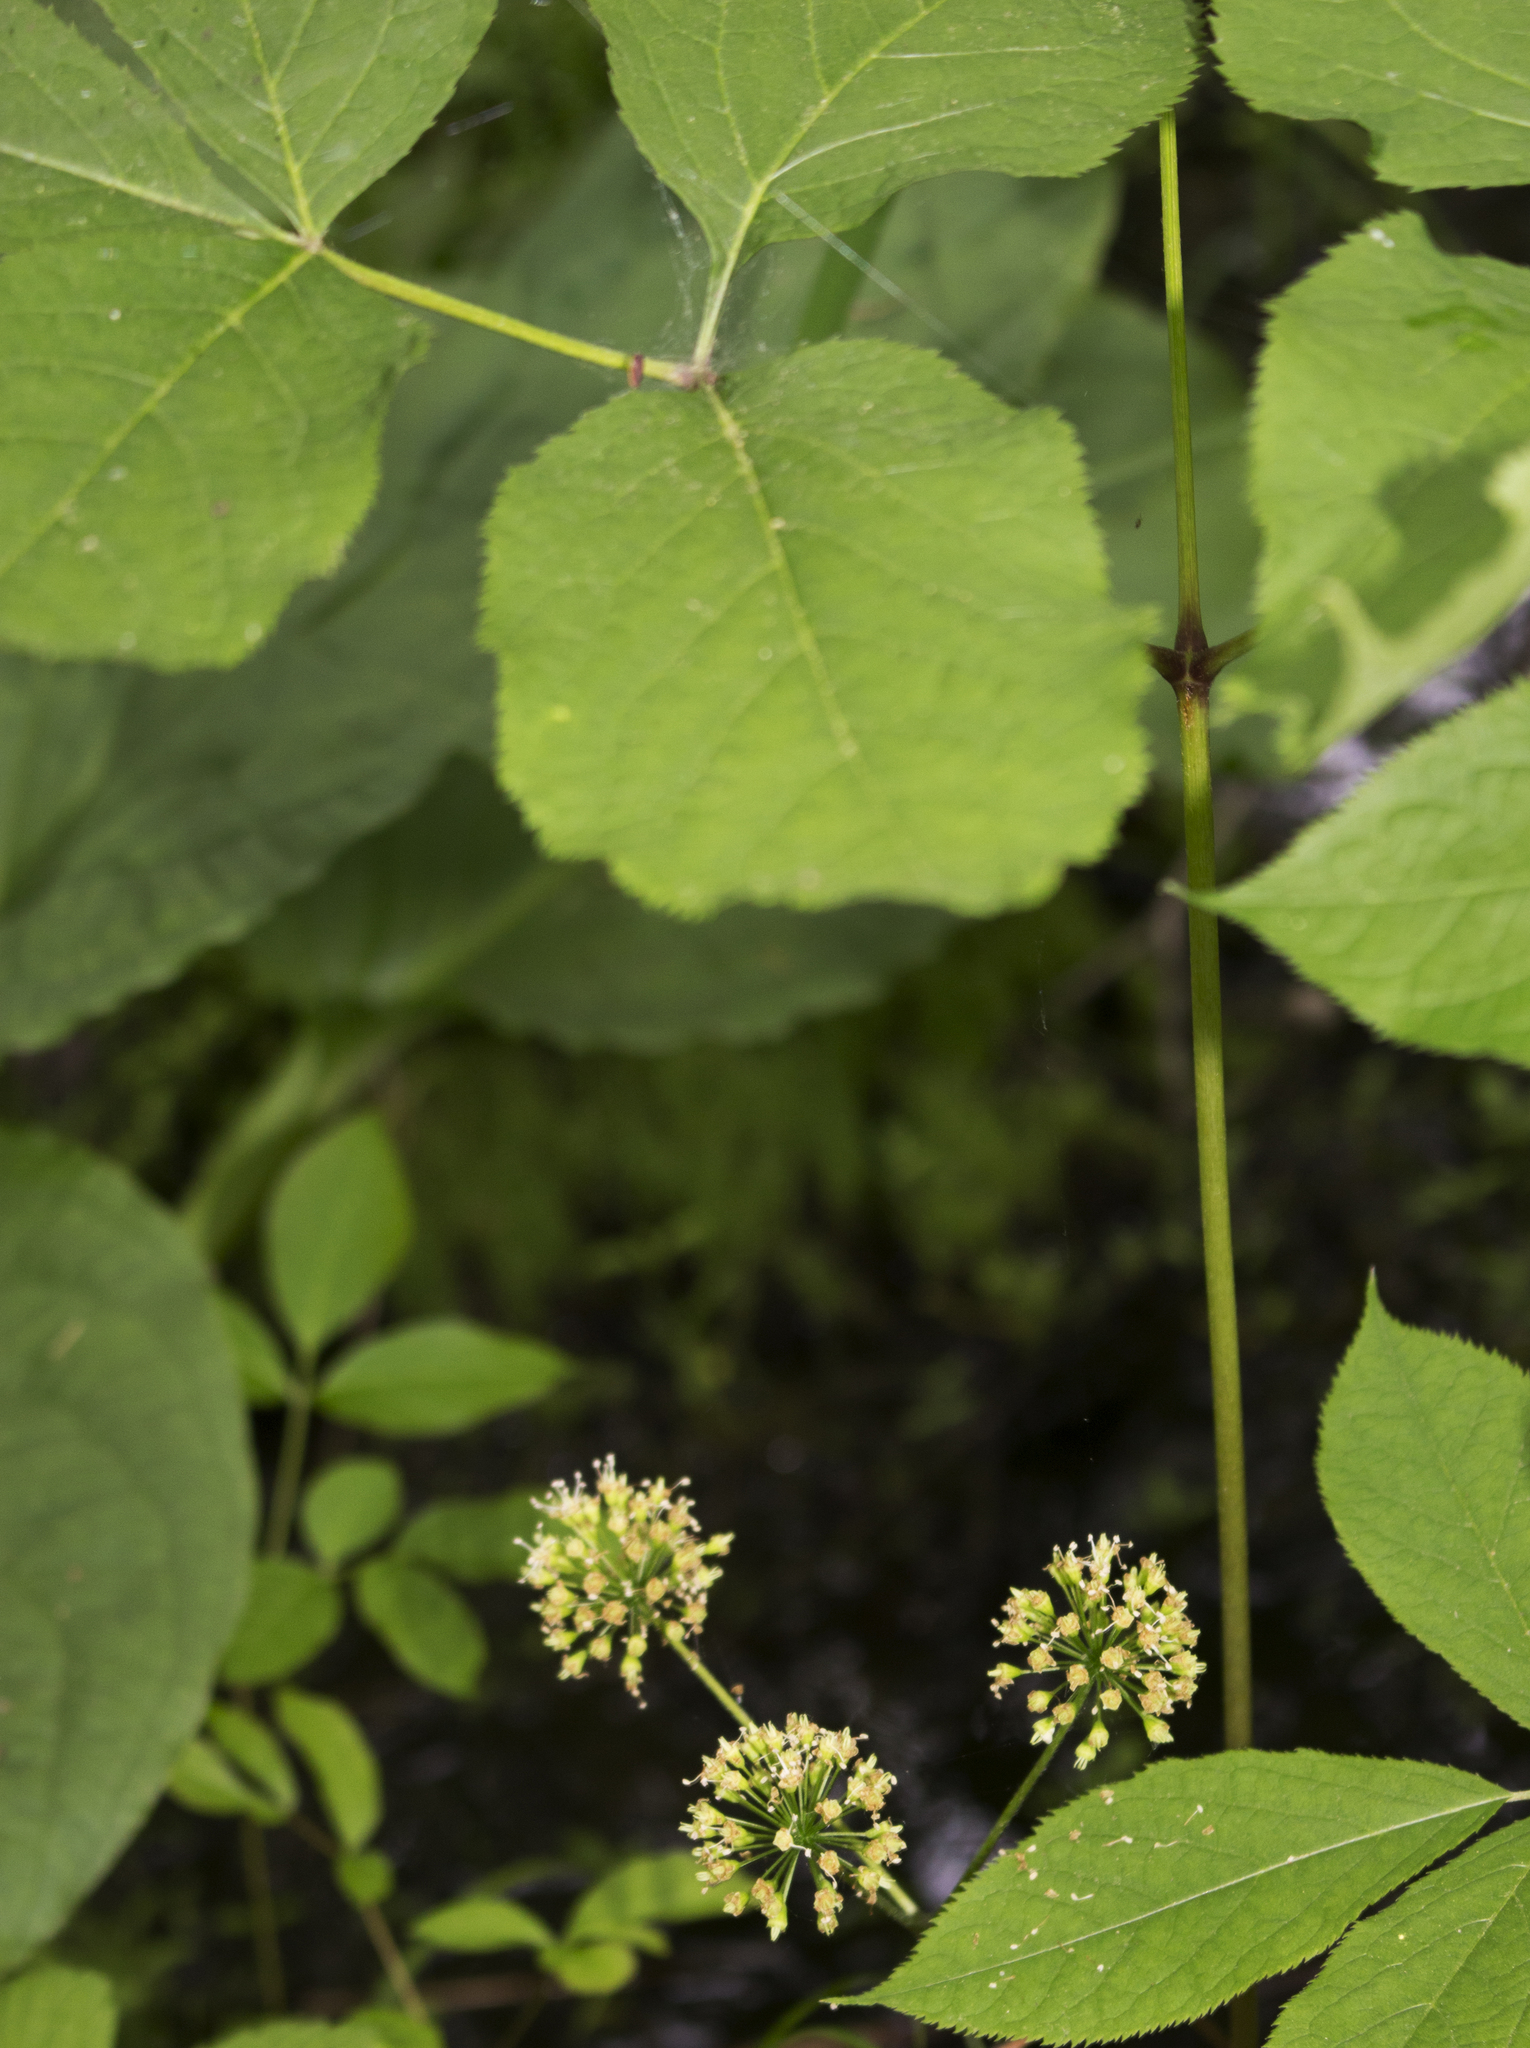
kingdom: Plantae
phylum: Tracheophyta
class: Magnoliopsida
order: Apiales
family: Araliaceae
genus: Aralia
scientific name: Aralia nudicaulis
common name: Wild sarsaparilla
